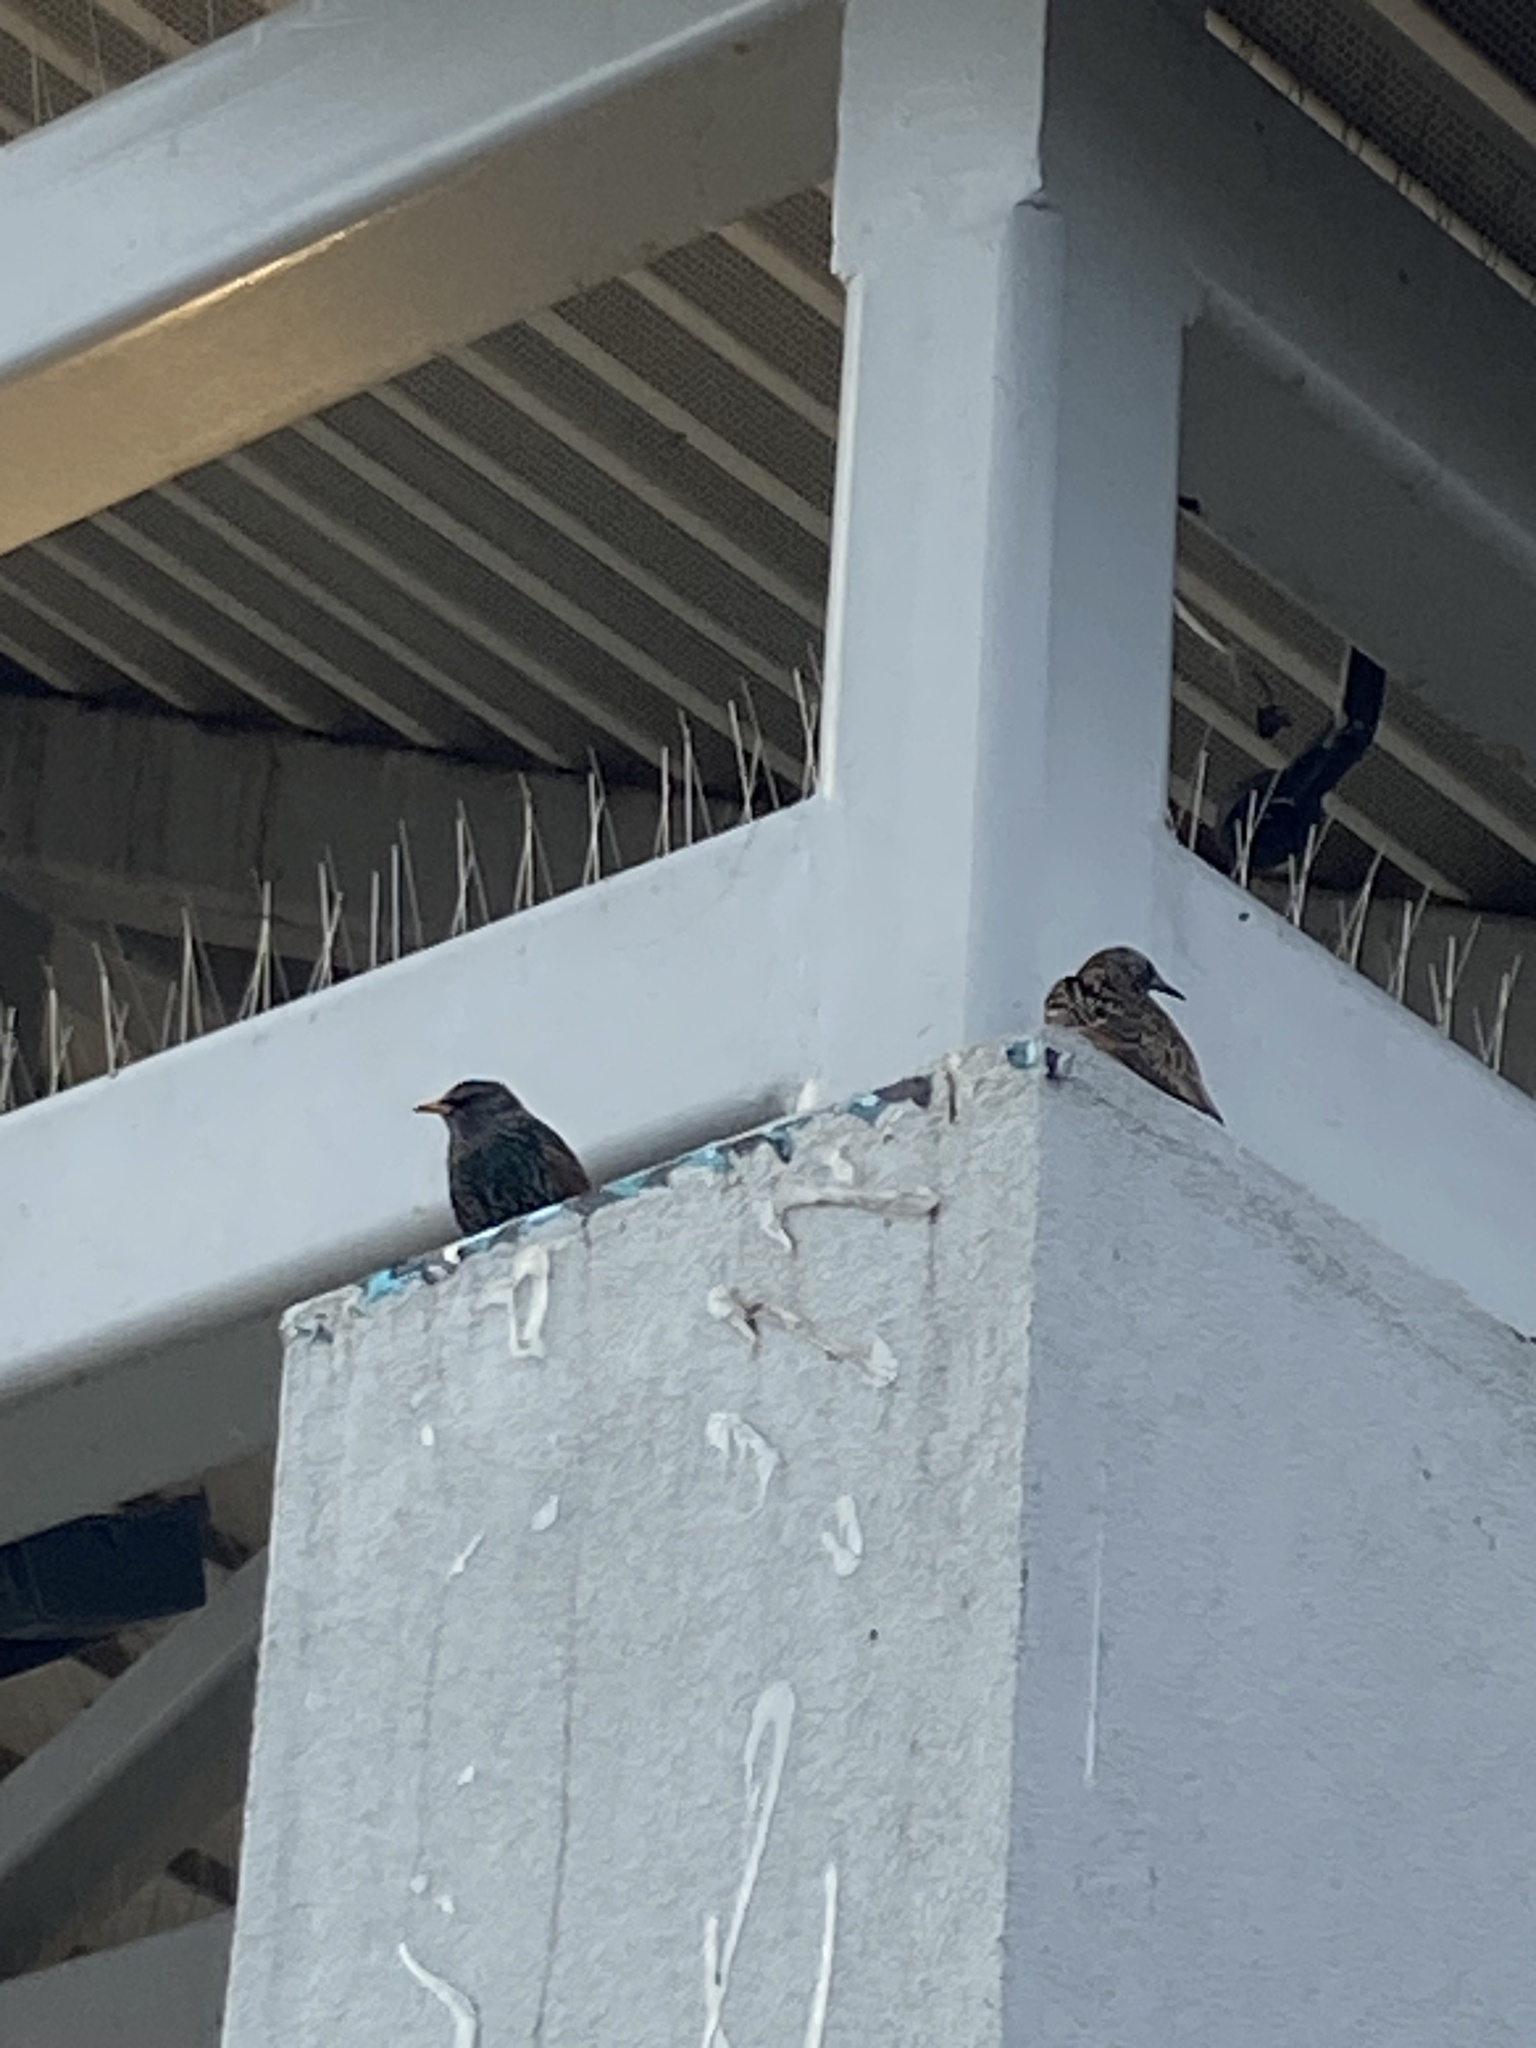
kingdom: Animalia
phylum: Chordata
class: Aves
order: Passeriformes
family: Sturnidae
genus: Sturnus
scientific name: Sturnus vulgaris
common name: Common starling
